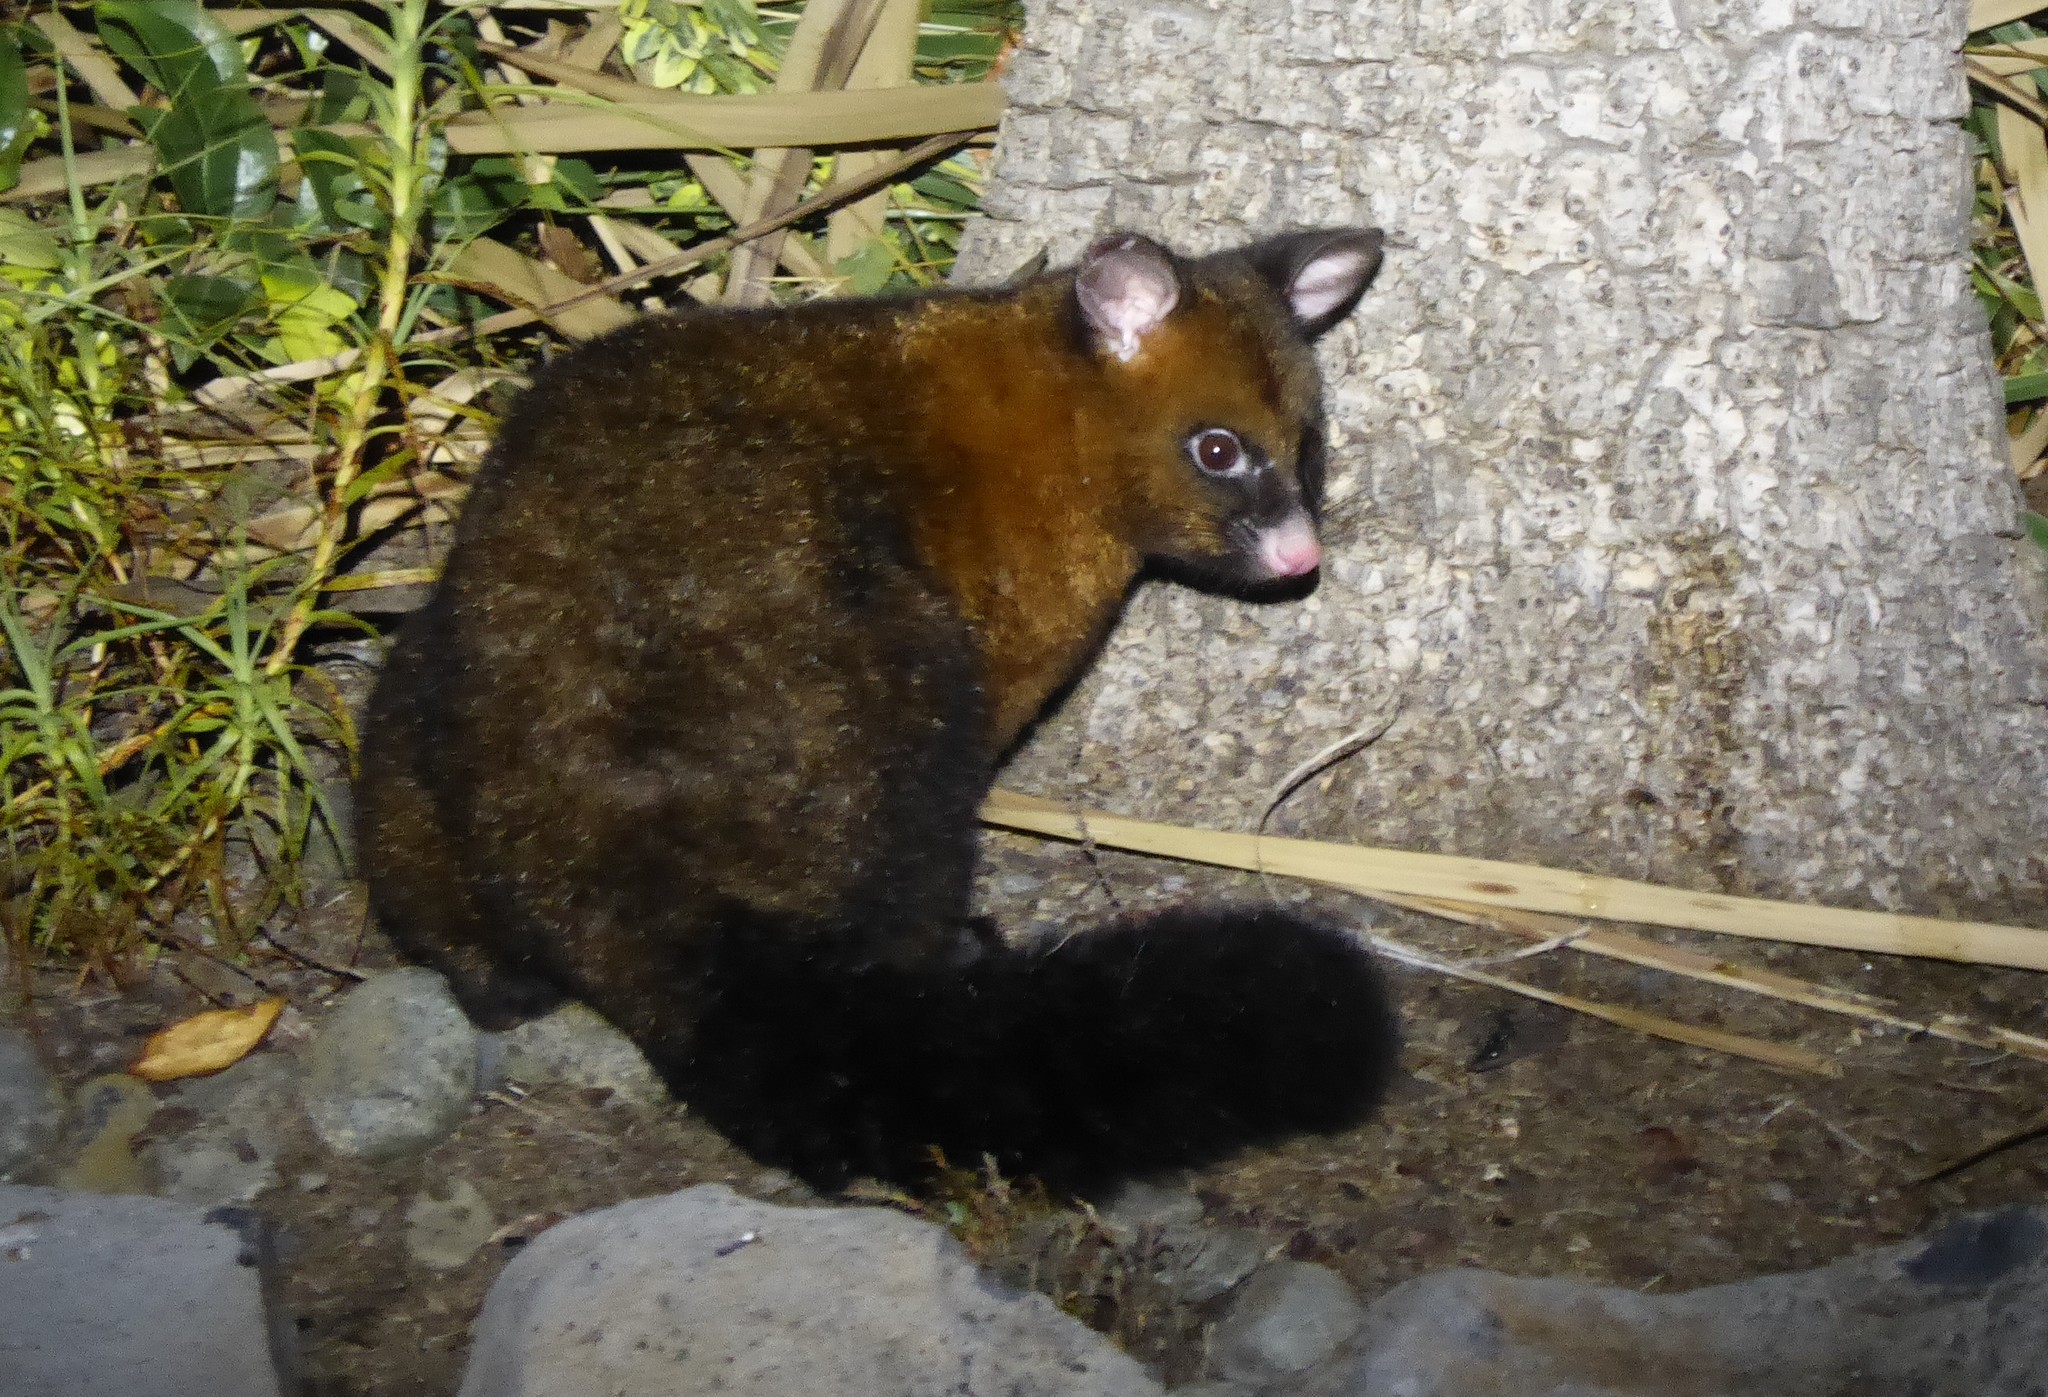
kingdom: Animalia
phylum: Chordata
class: Mammalia
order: Diprotodontia
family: Phalangeridae
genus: Trichosurus
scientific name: Trichosurus vulpecula
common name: Common brushtail
